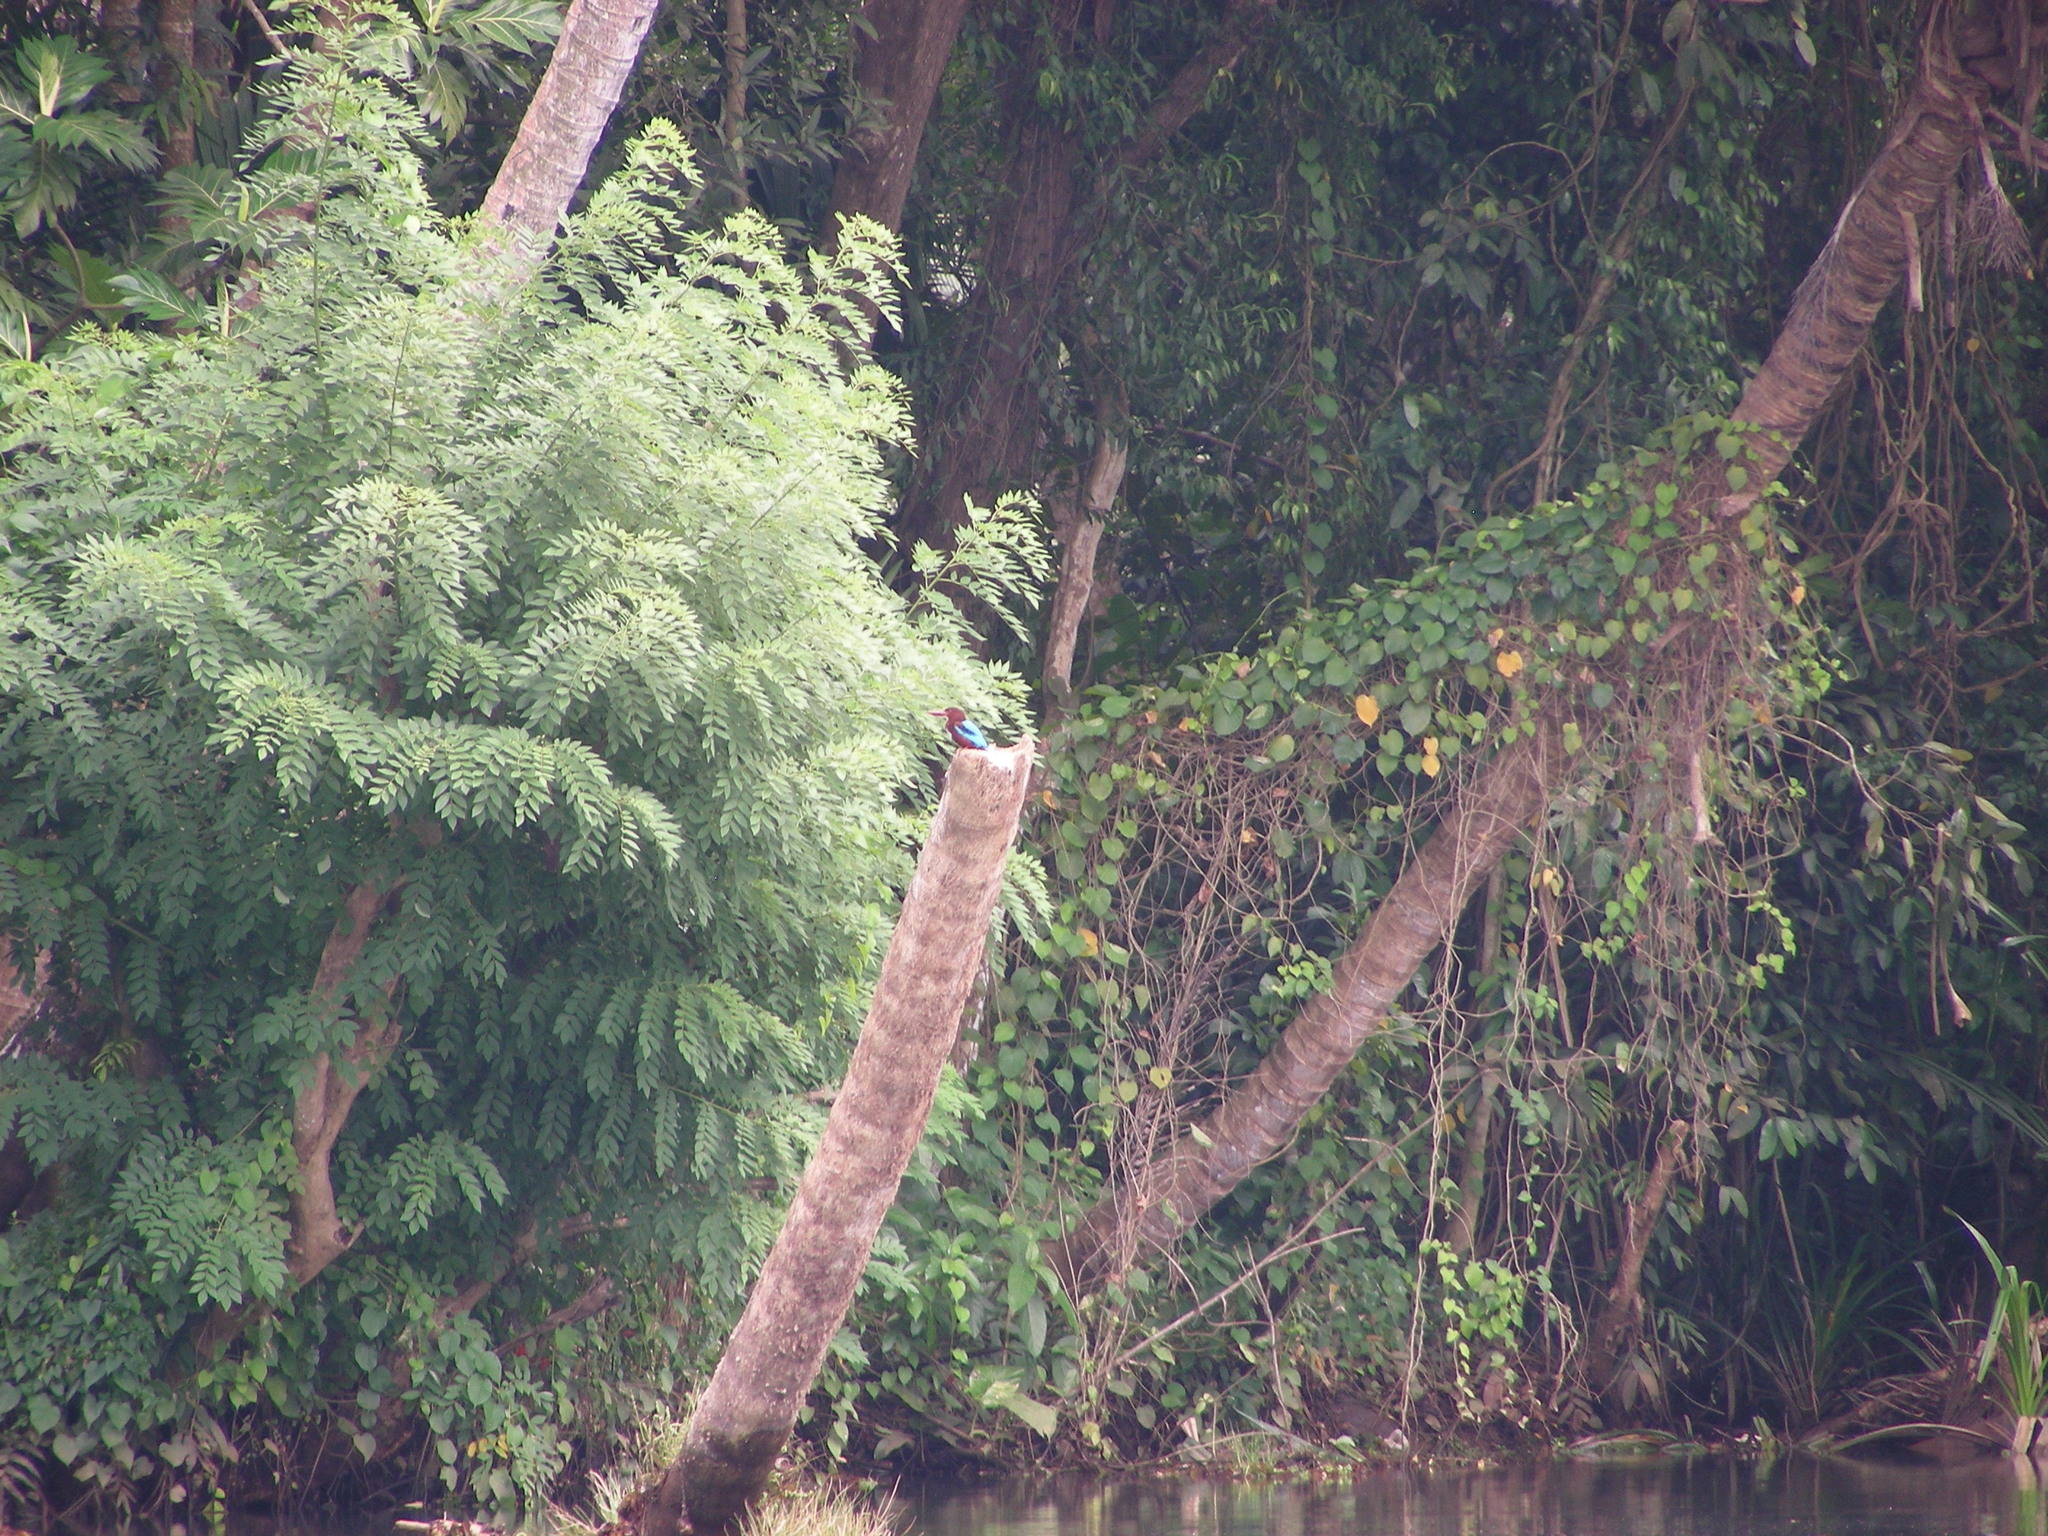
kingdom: Animalia
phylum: Chordata
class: Aves
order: Coraciiformes
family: Alcedinidae
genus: Halcyon
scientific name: Halcyon smyrnensis
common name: White-throated kingfisher
